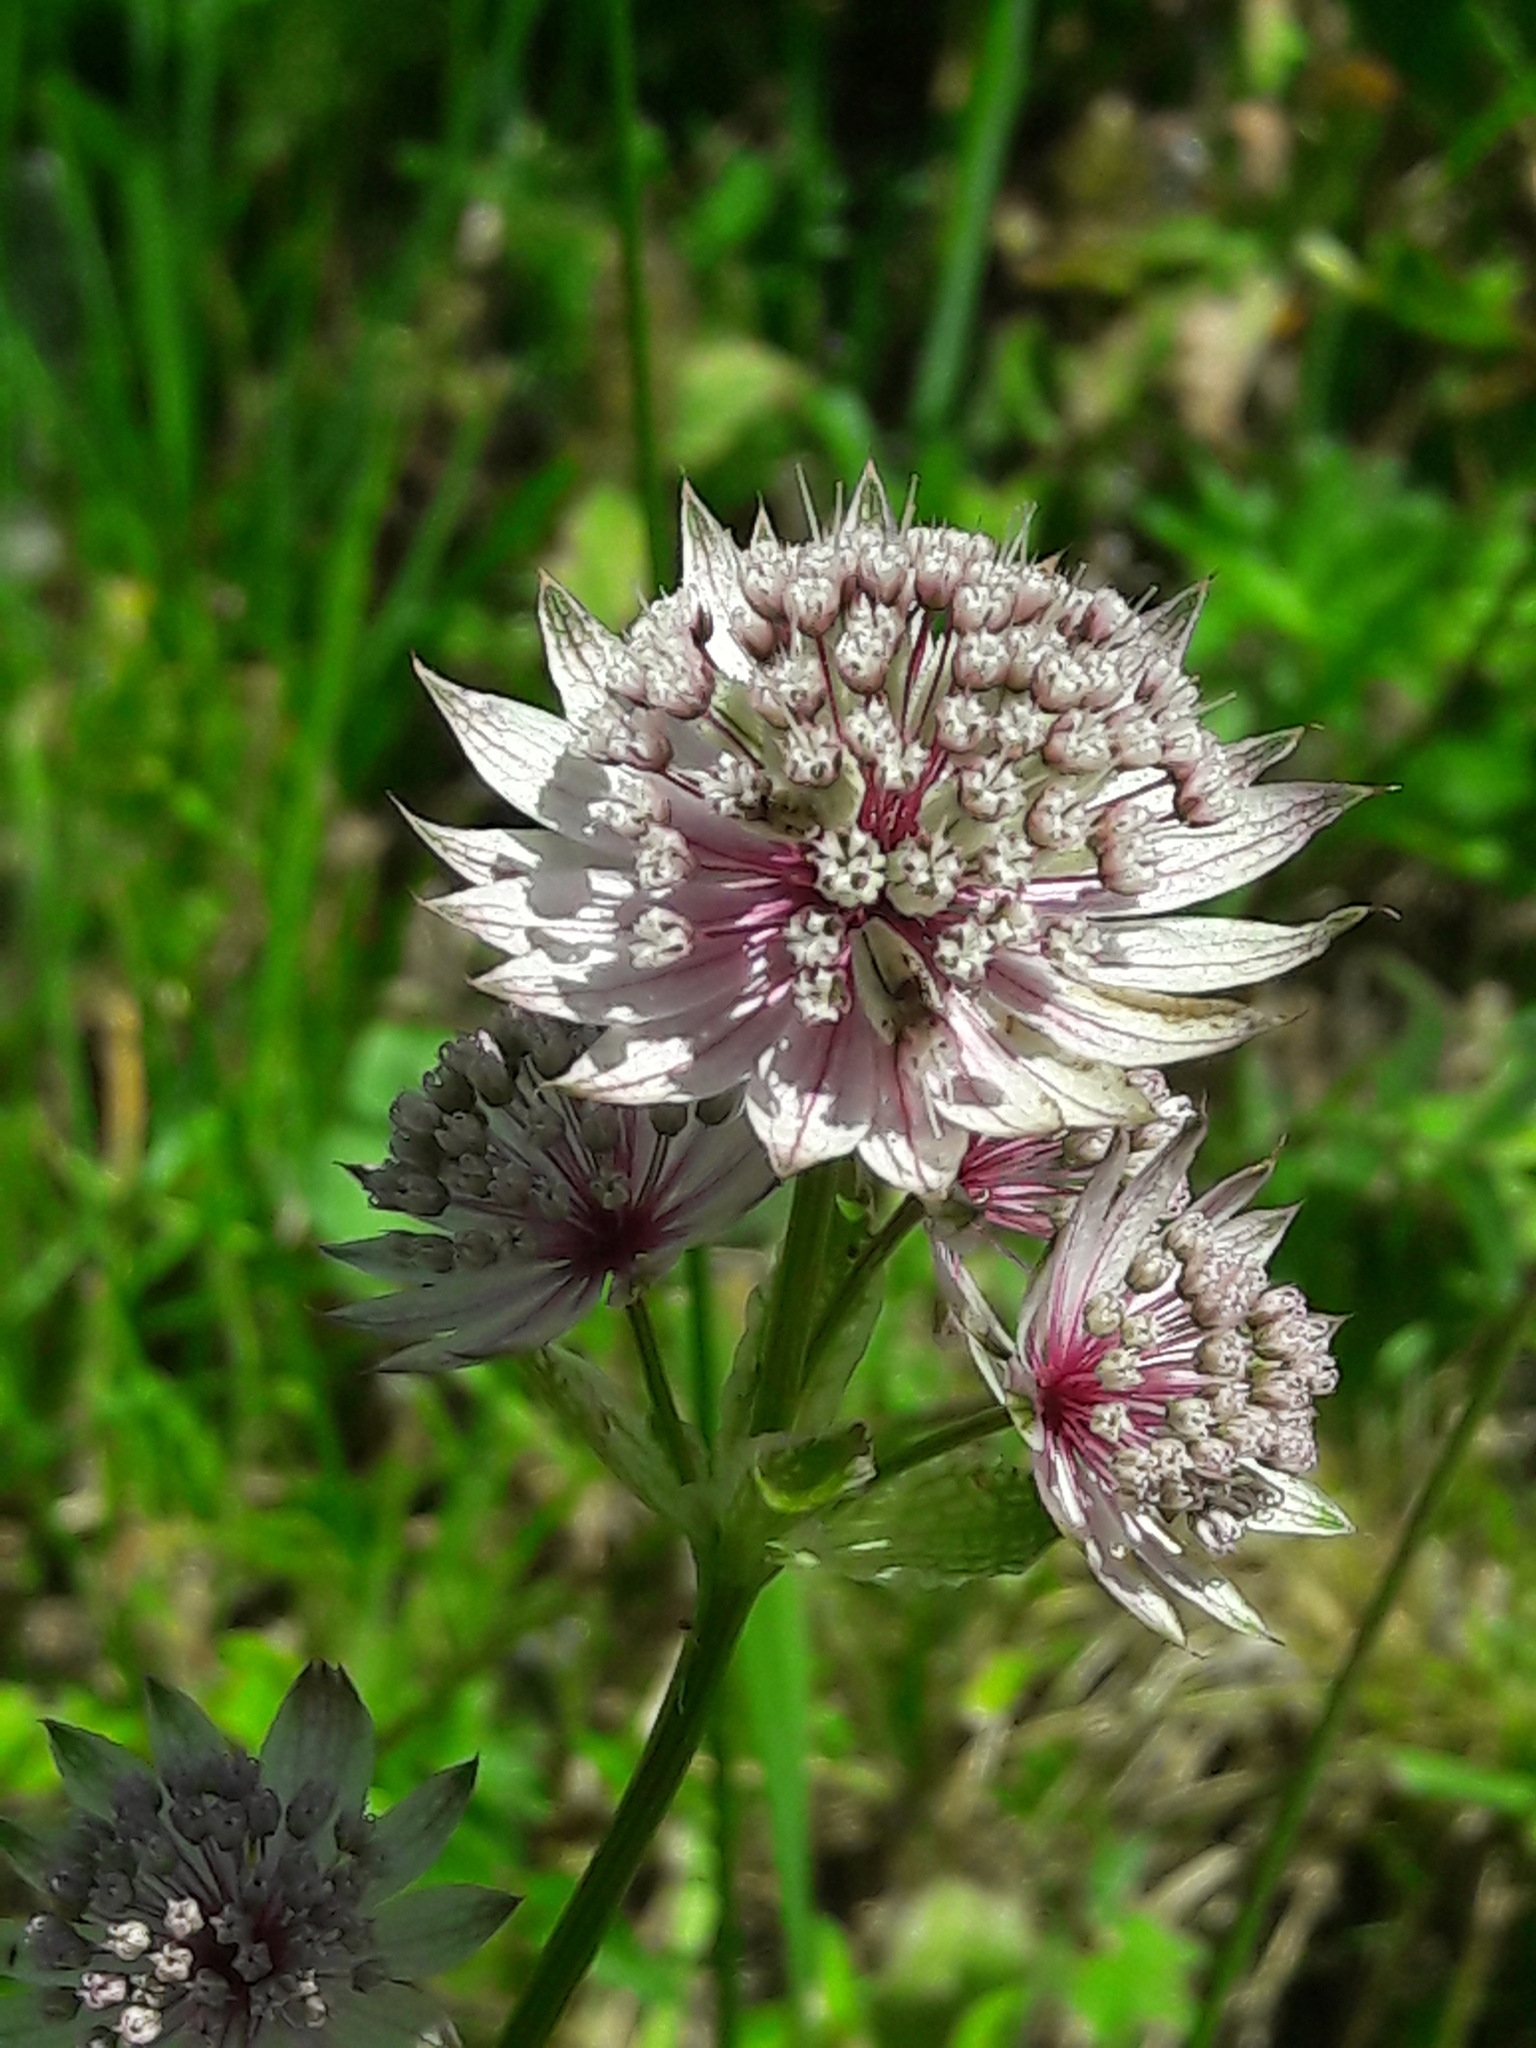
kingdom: Plantae
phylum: Tracheophyta
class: Magnoliopsida
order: Apiales
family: Apiaceae
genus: Astrantia
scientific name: Astrantia major
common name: Greater masterwort
